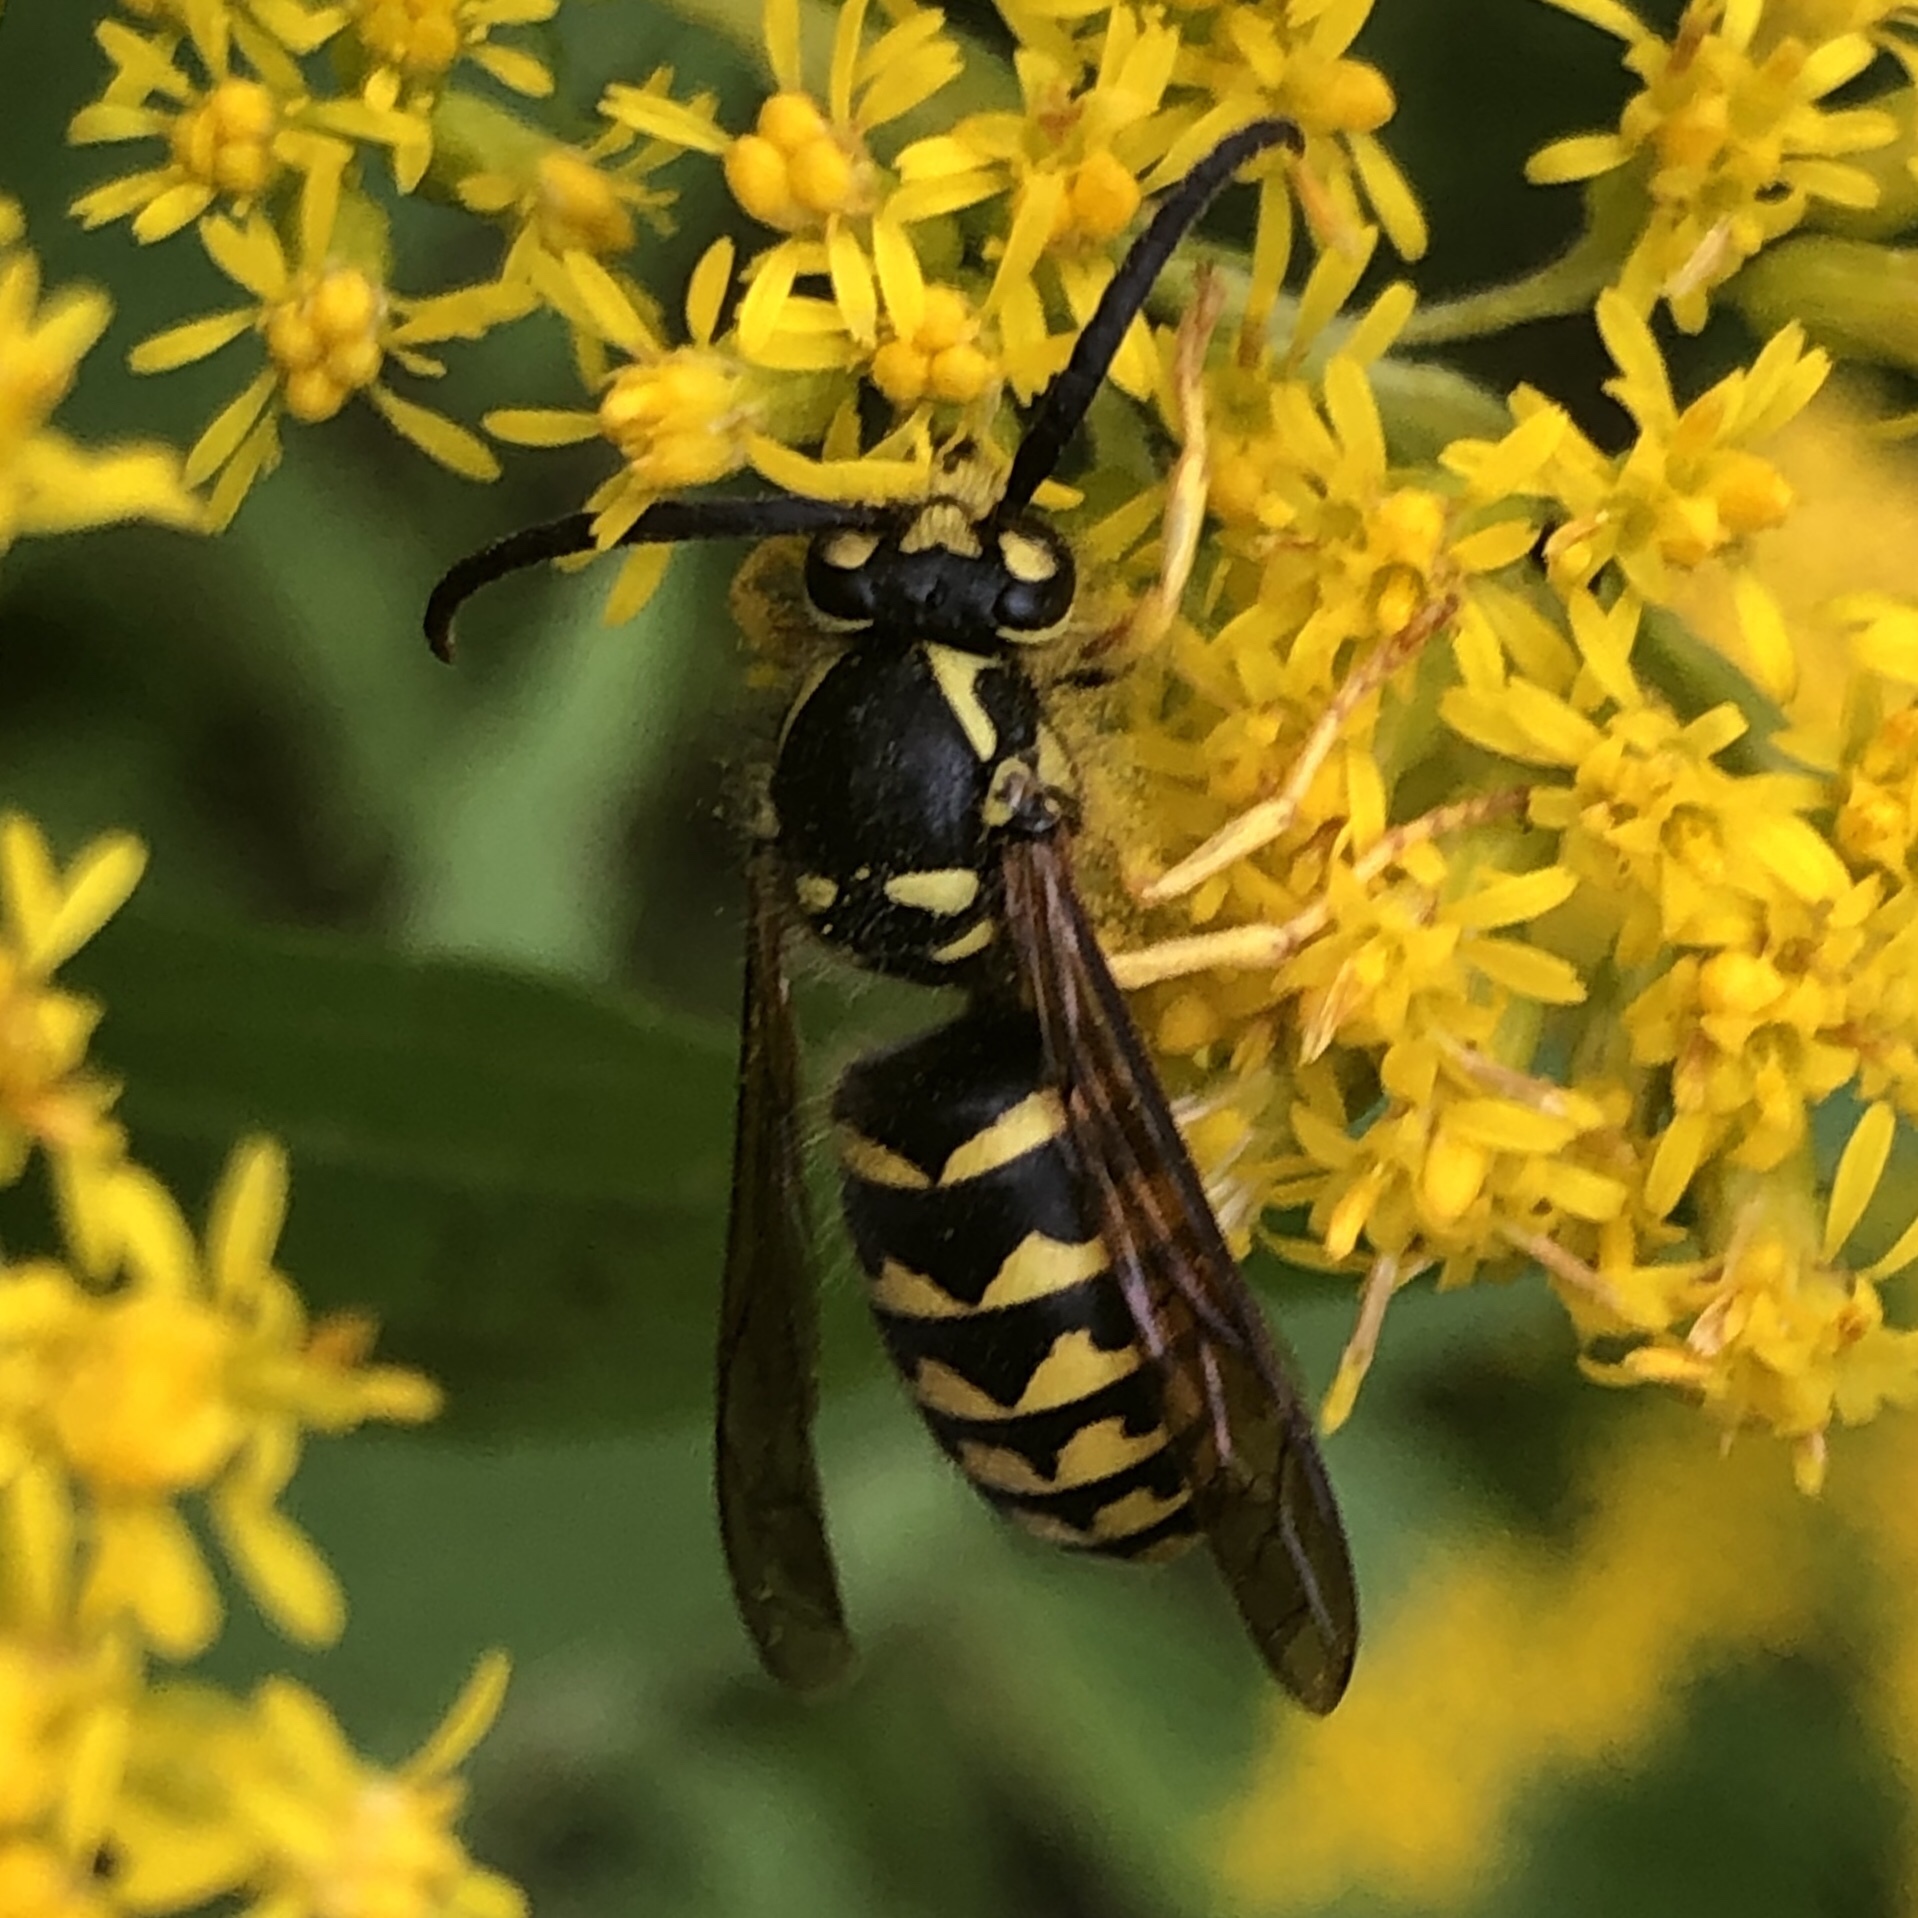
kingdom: Animalia
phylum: Arthropoda
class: Insecta
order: Hymenoptera
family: Vespidae
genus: Dolichovespula
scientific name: Dolichovespula arenaria
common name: Aerial yellowjacket
